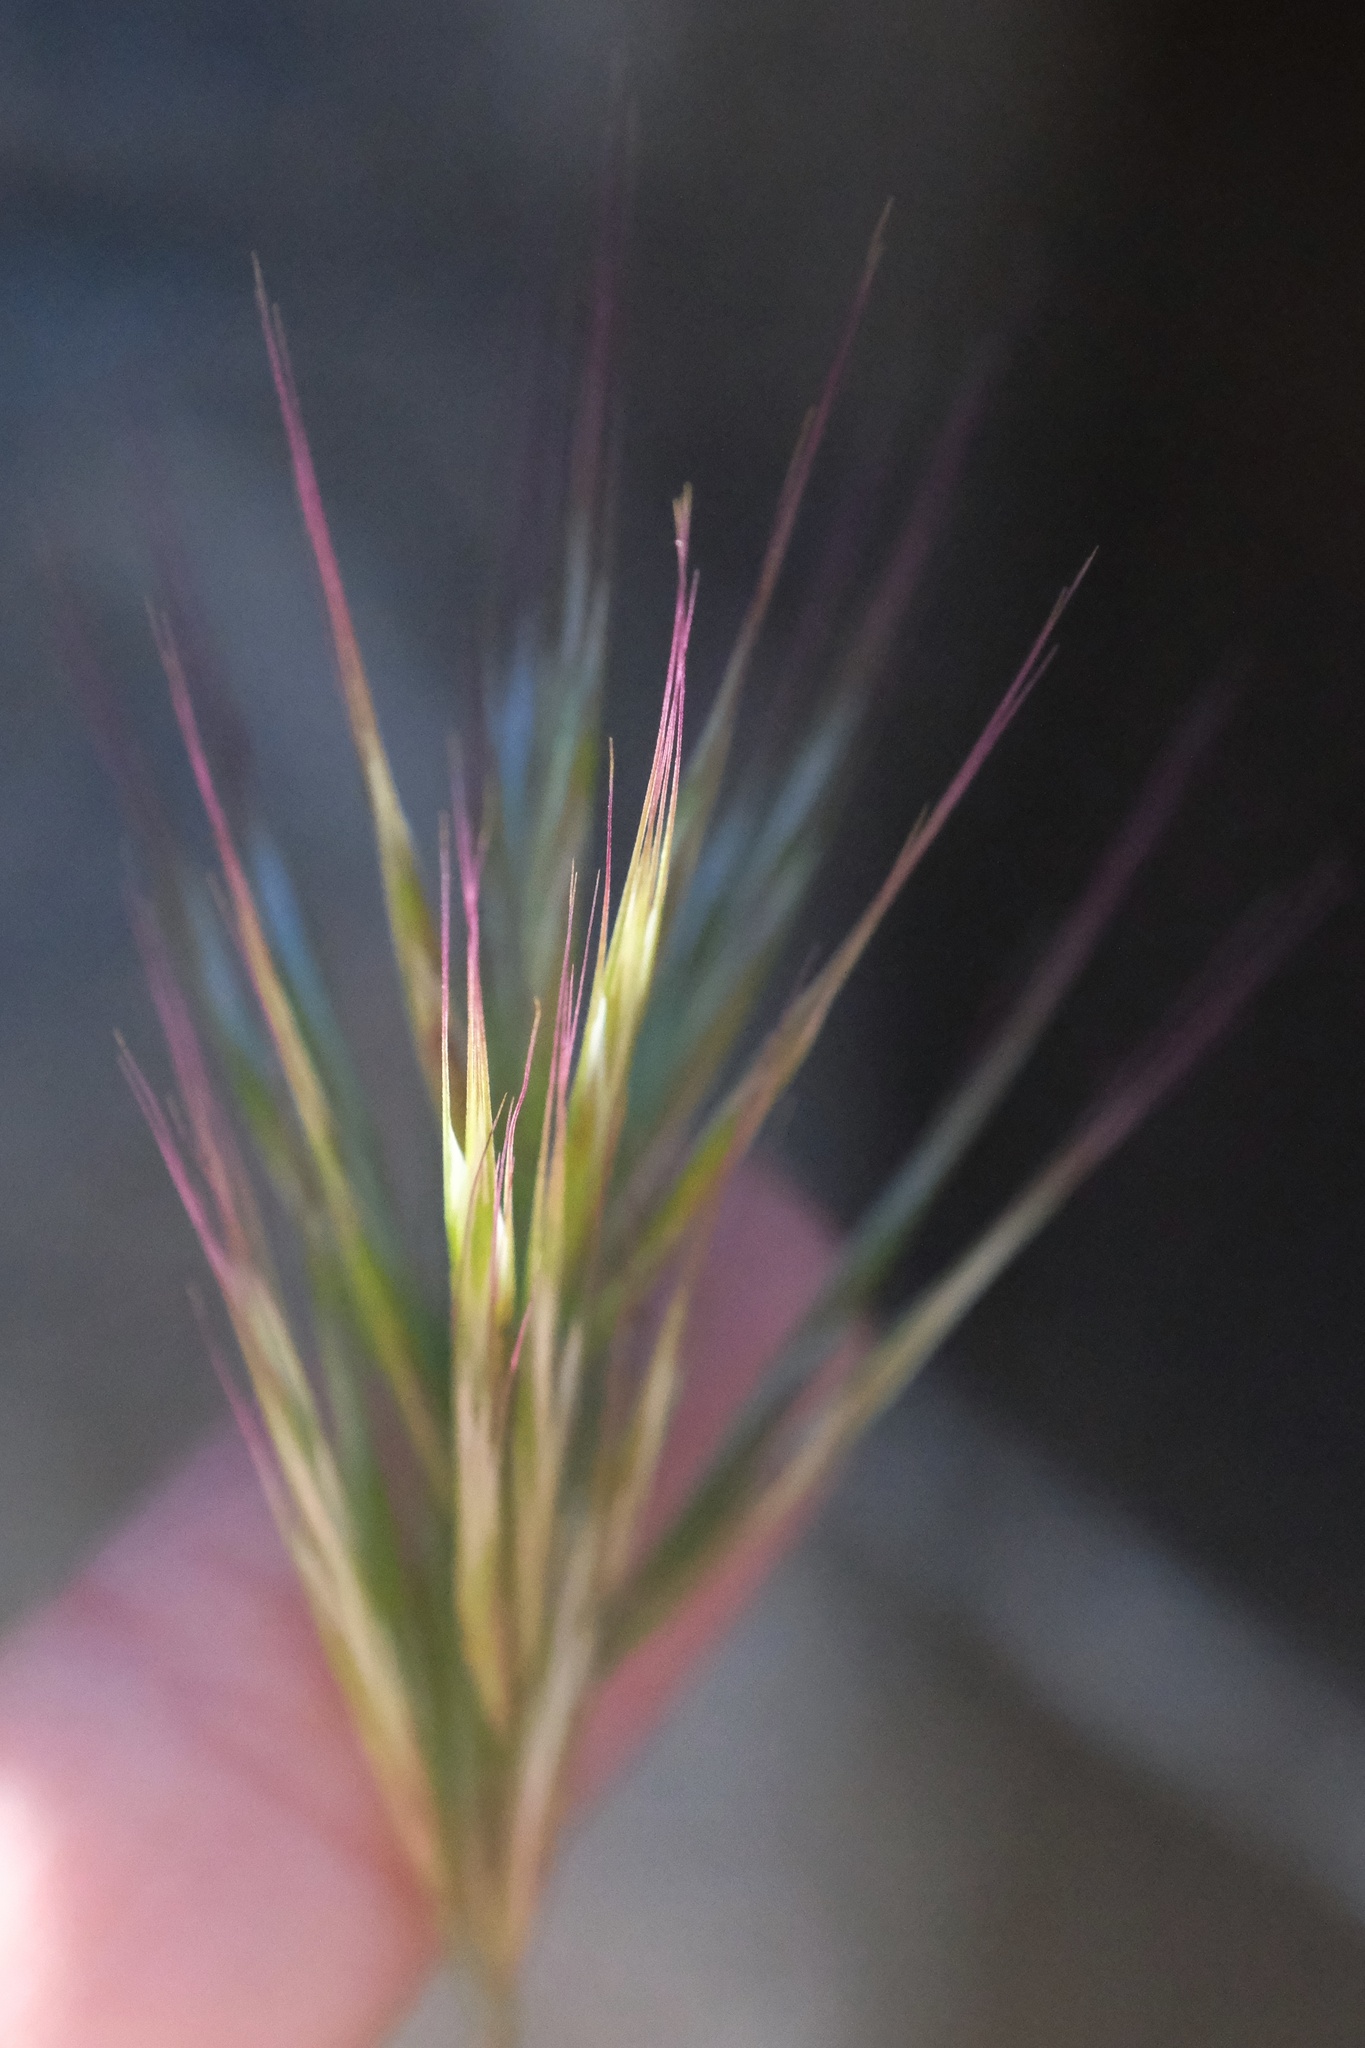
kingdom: Plantae
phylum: Tracheophyta
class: Liliopsida
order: Poales
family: Poaceae
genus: Bromus
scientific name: Bromus rubens
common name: Red brome
